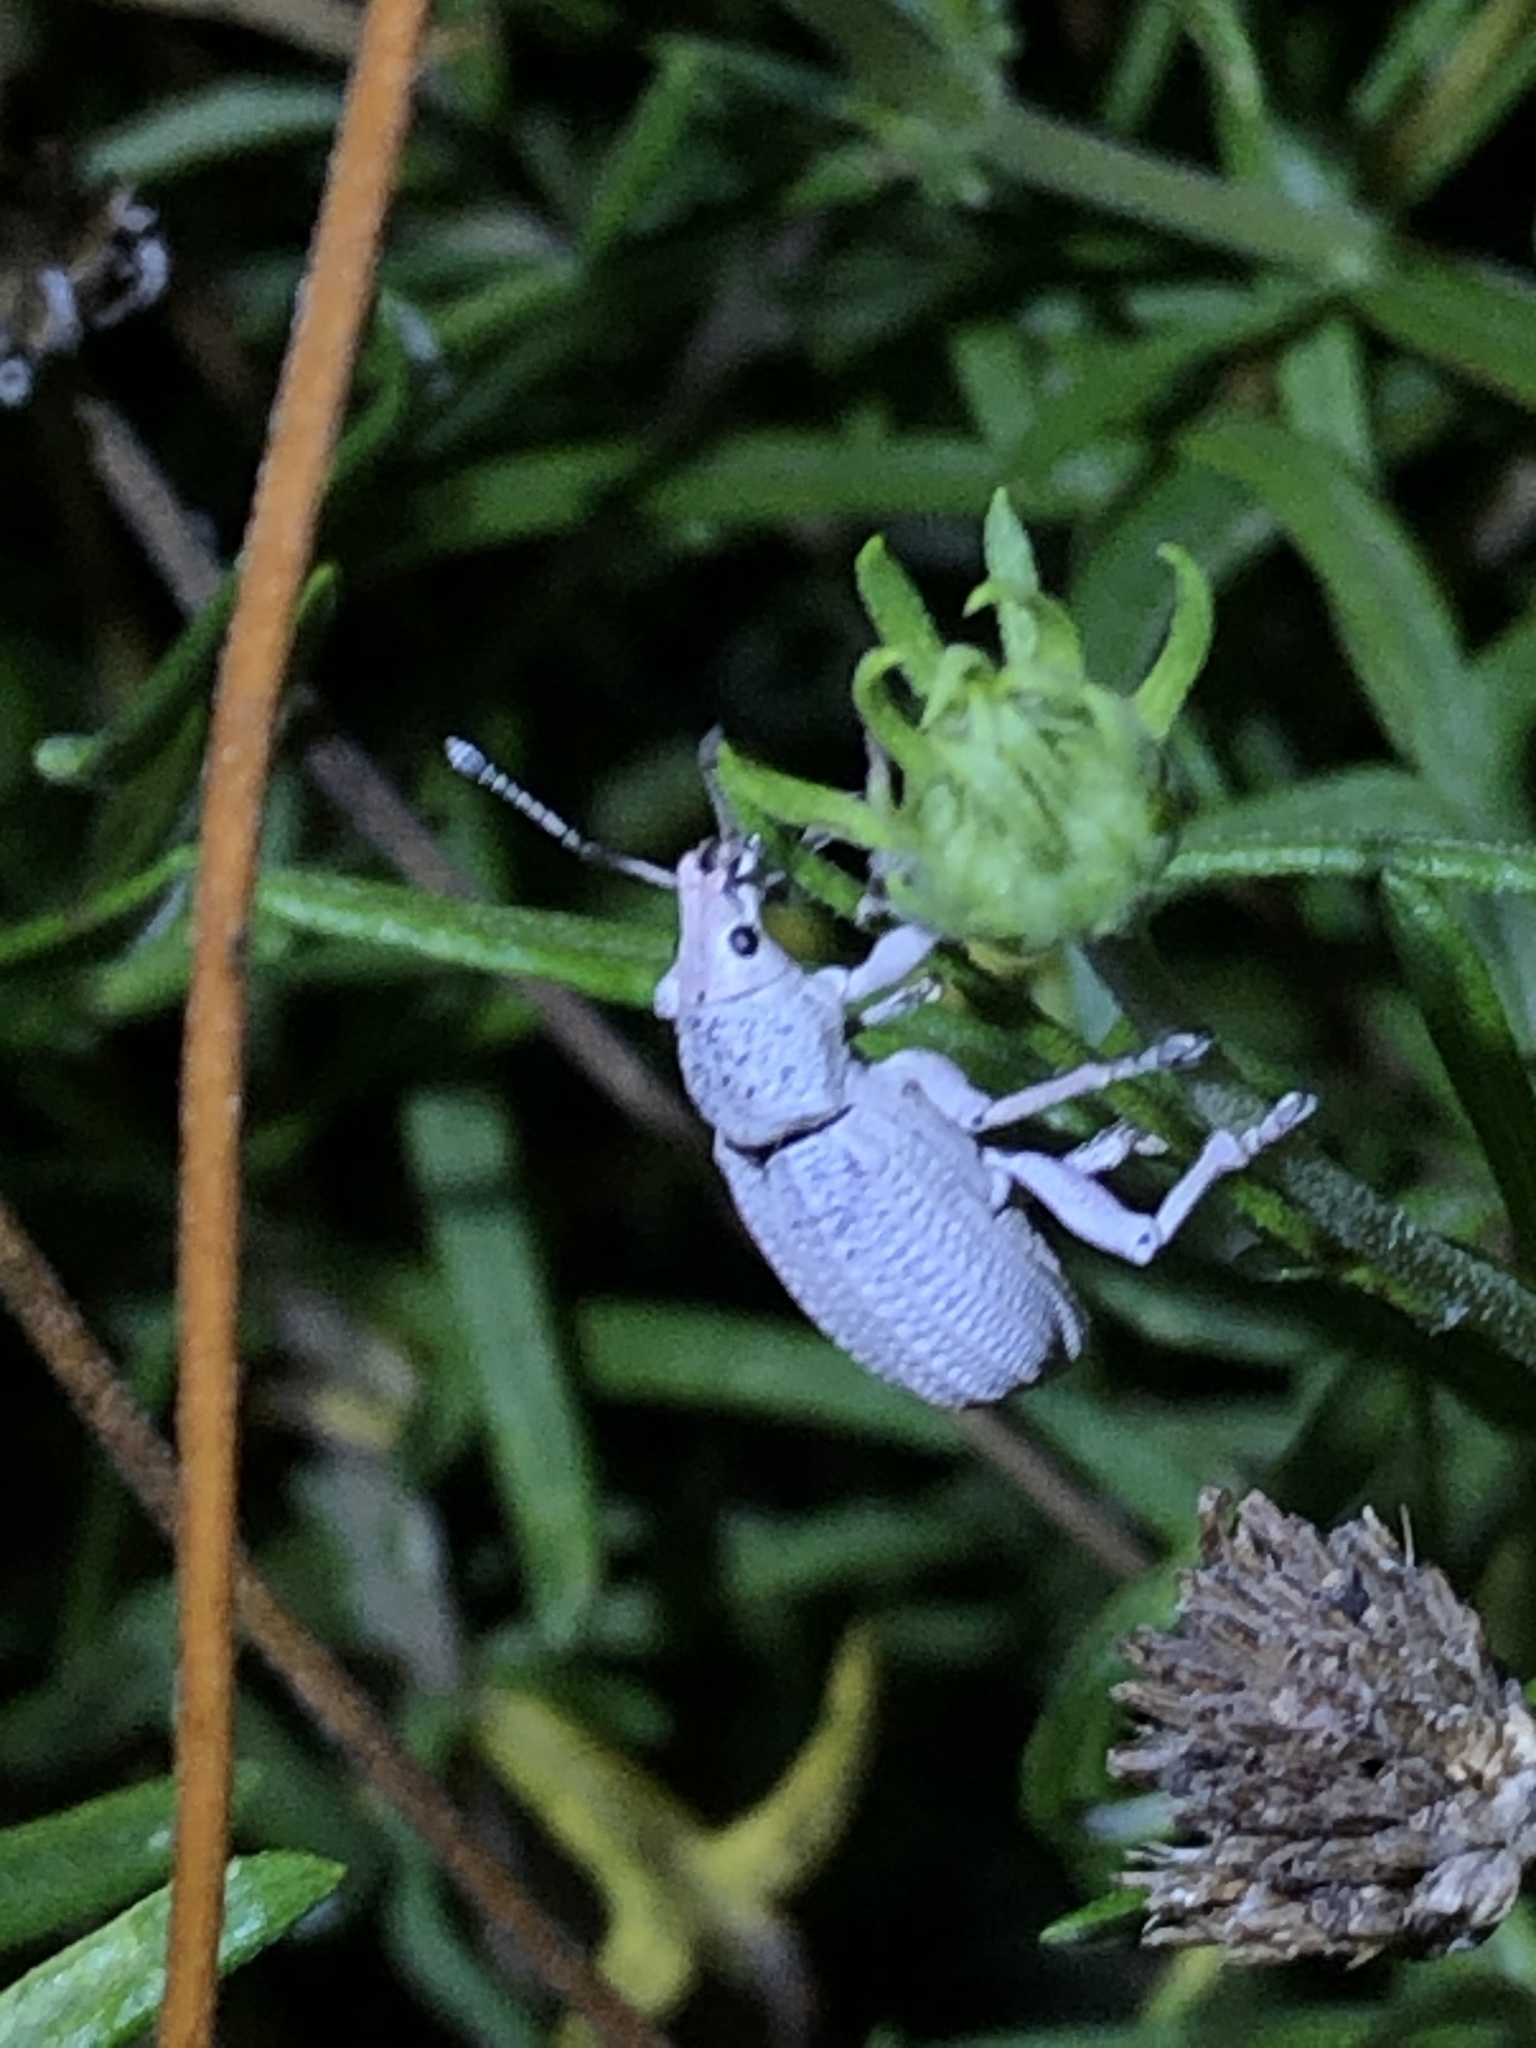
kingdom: Animalia
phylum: Arthropoda
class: Insecta
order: Coleoptera
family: Curculionidae
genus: Compsus
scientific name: Compsus auricephalus
